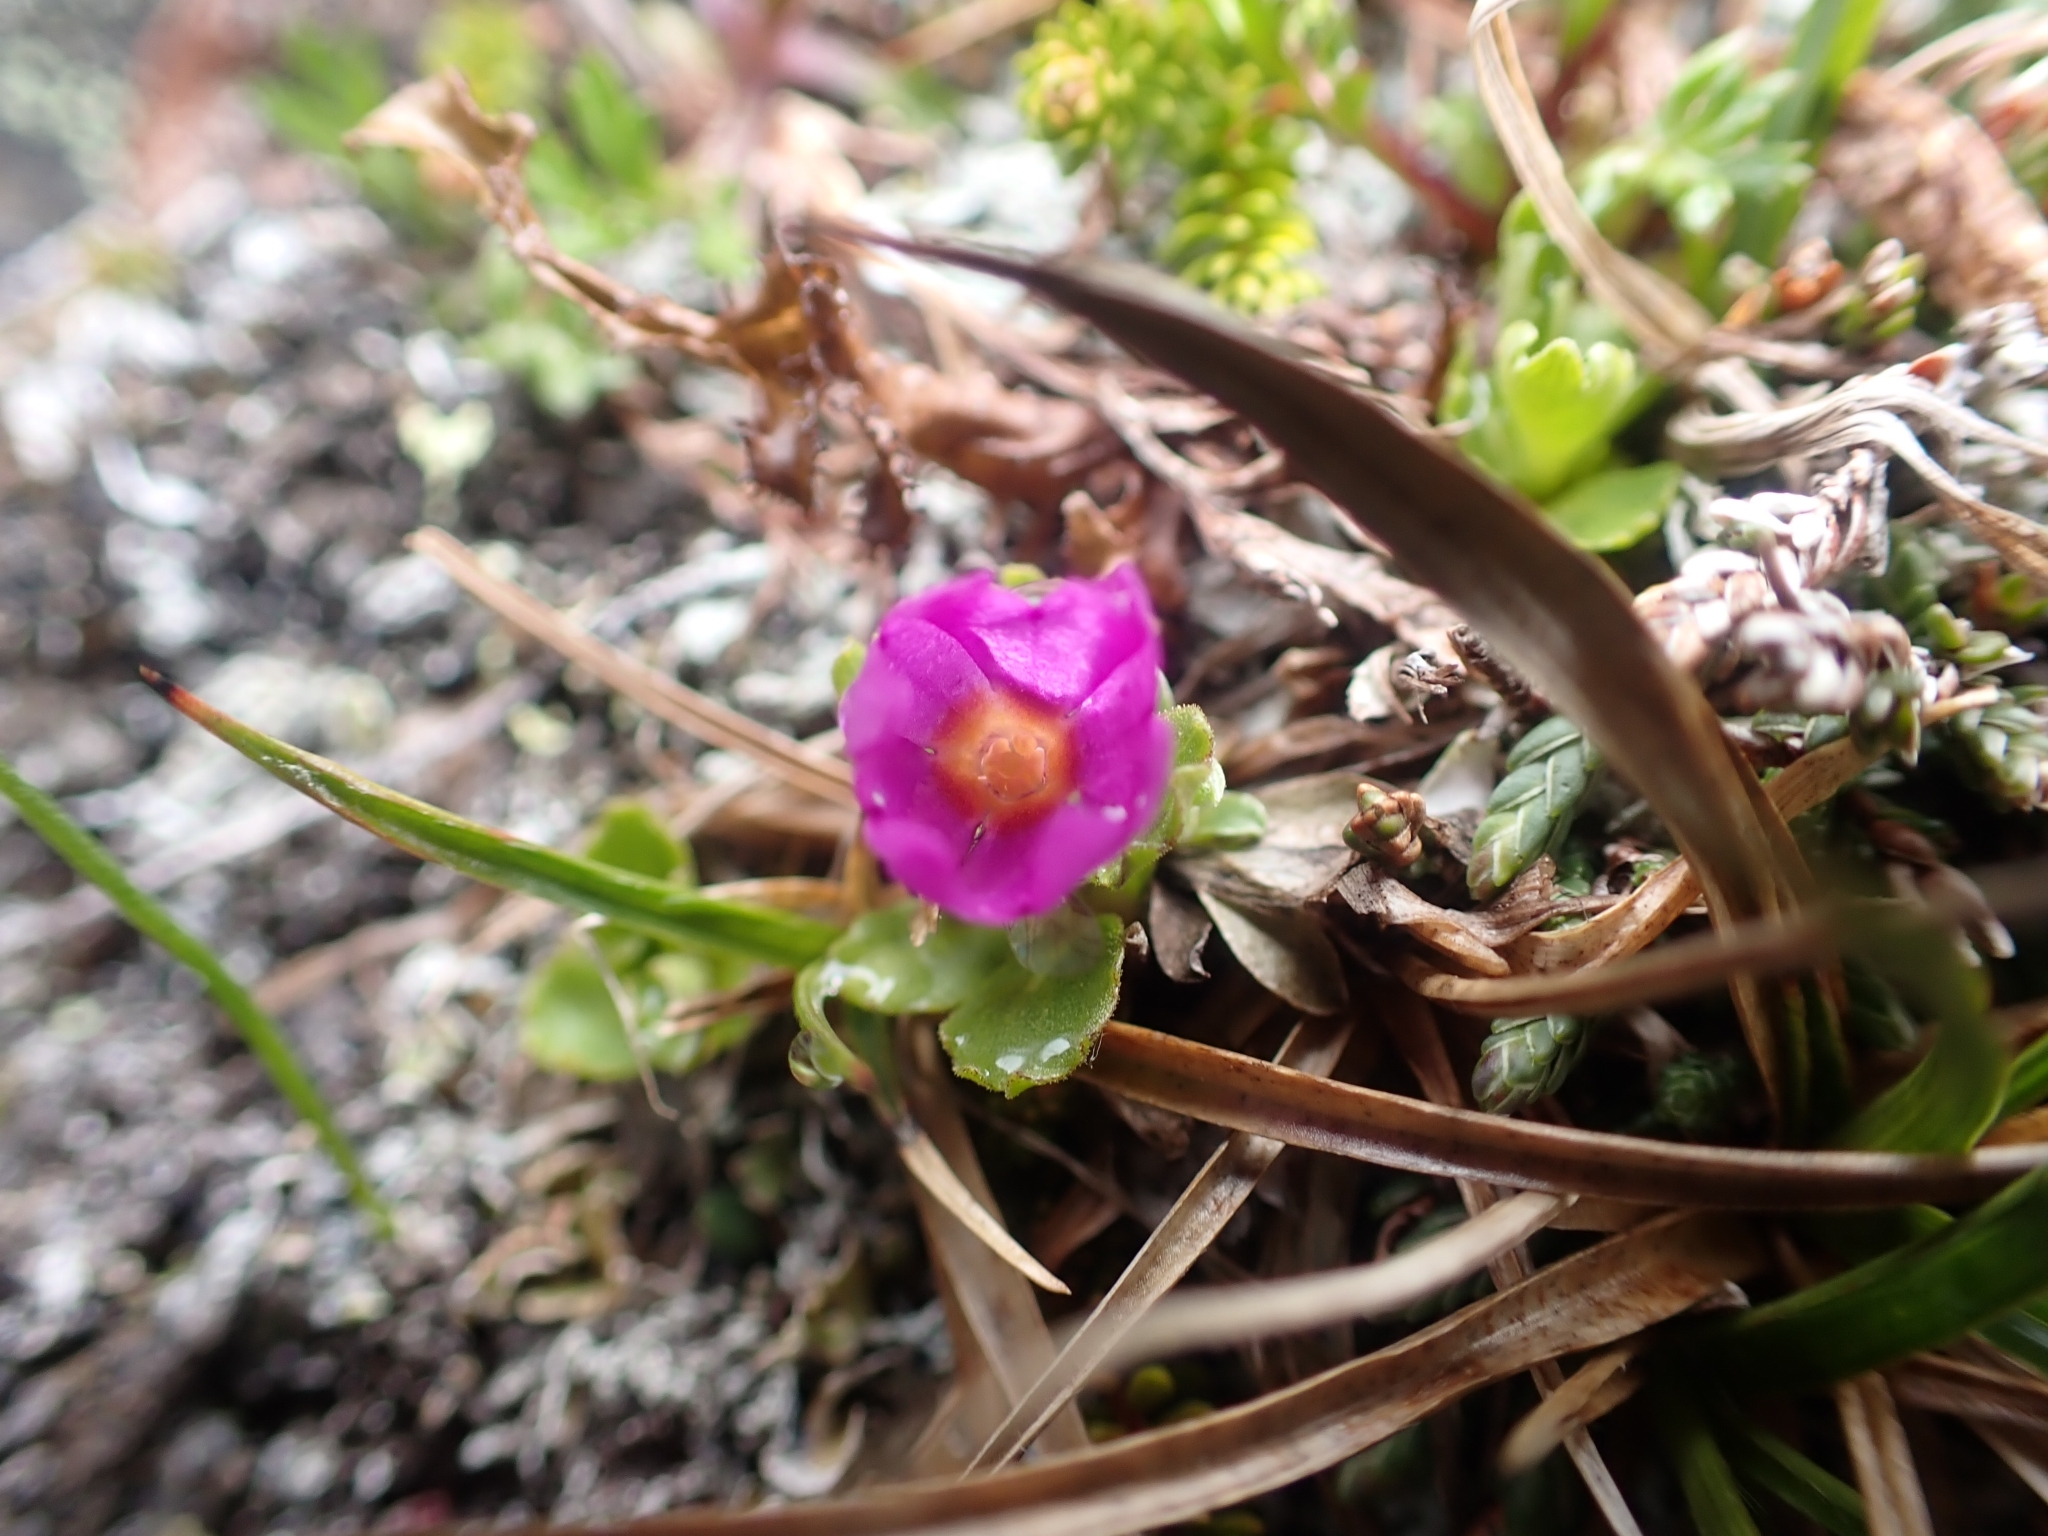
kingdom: Plantae
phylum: Tracheophyta
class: Magnoliopsida
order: Ericales
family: Primulaceae
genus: Primula
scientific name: Primula cuneifolia
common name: Wedge-leaved primrose
